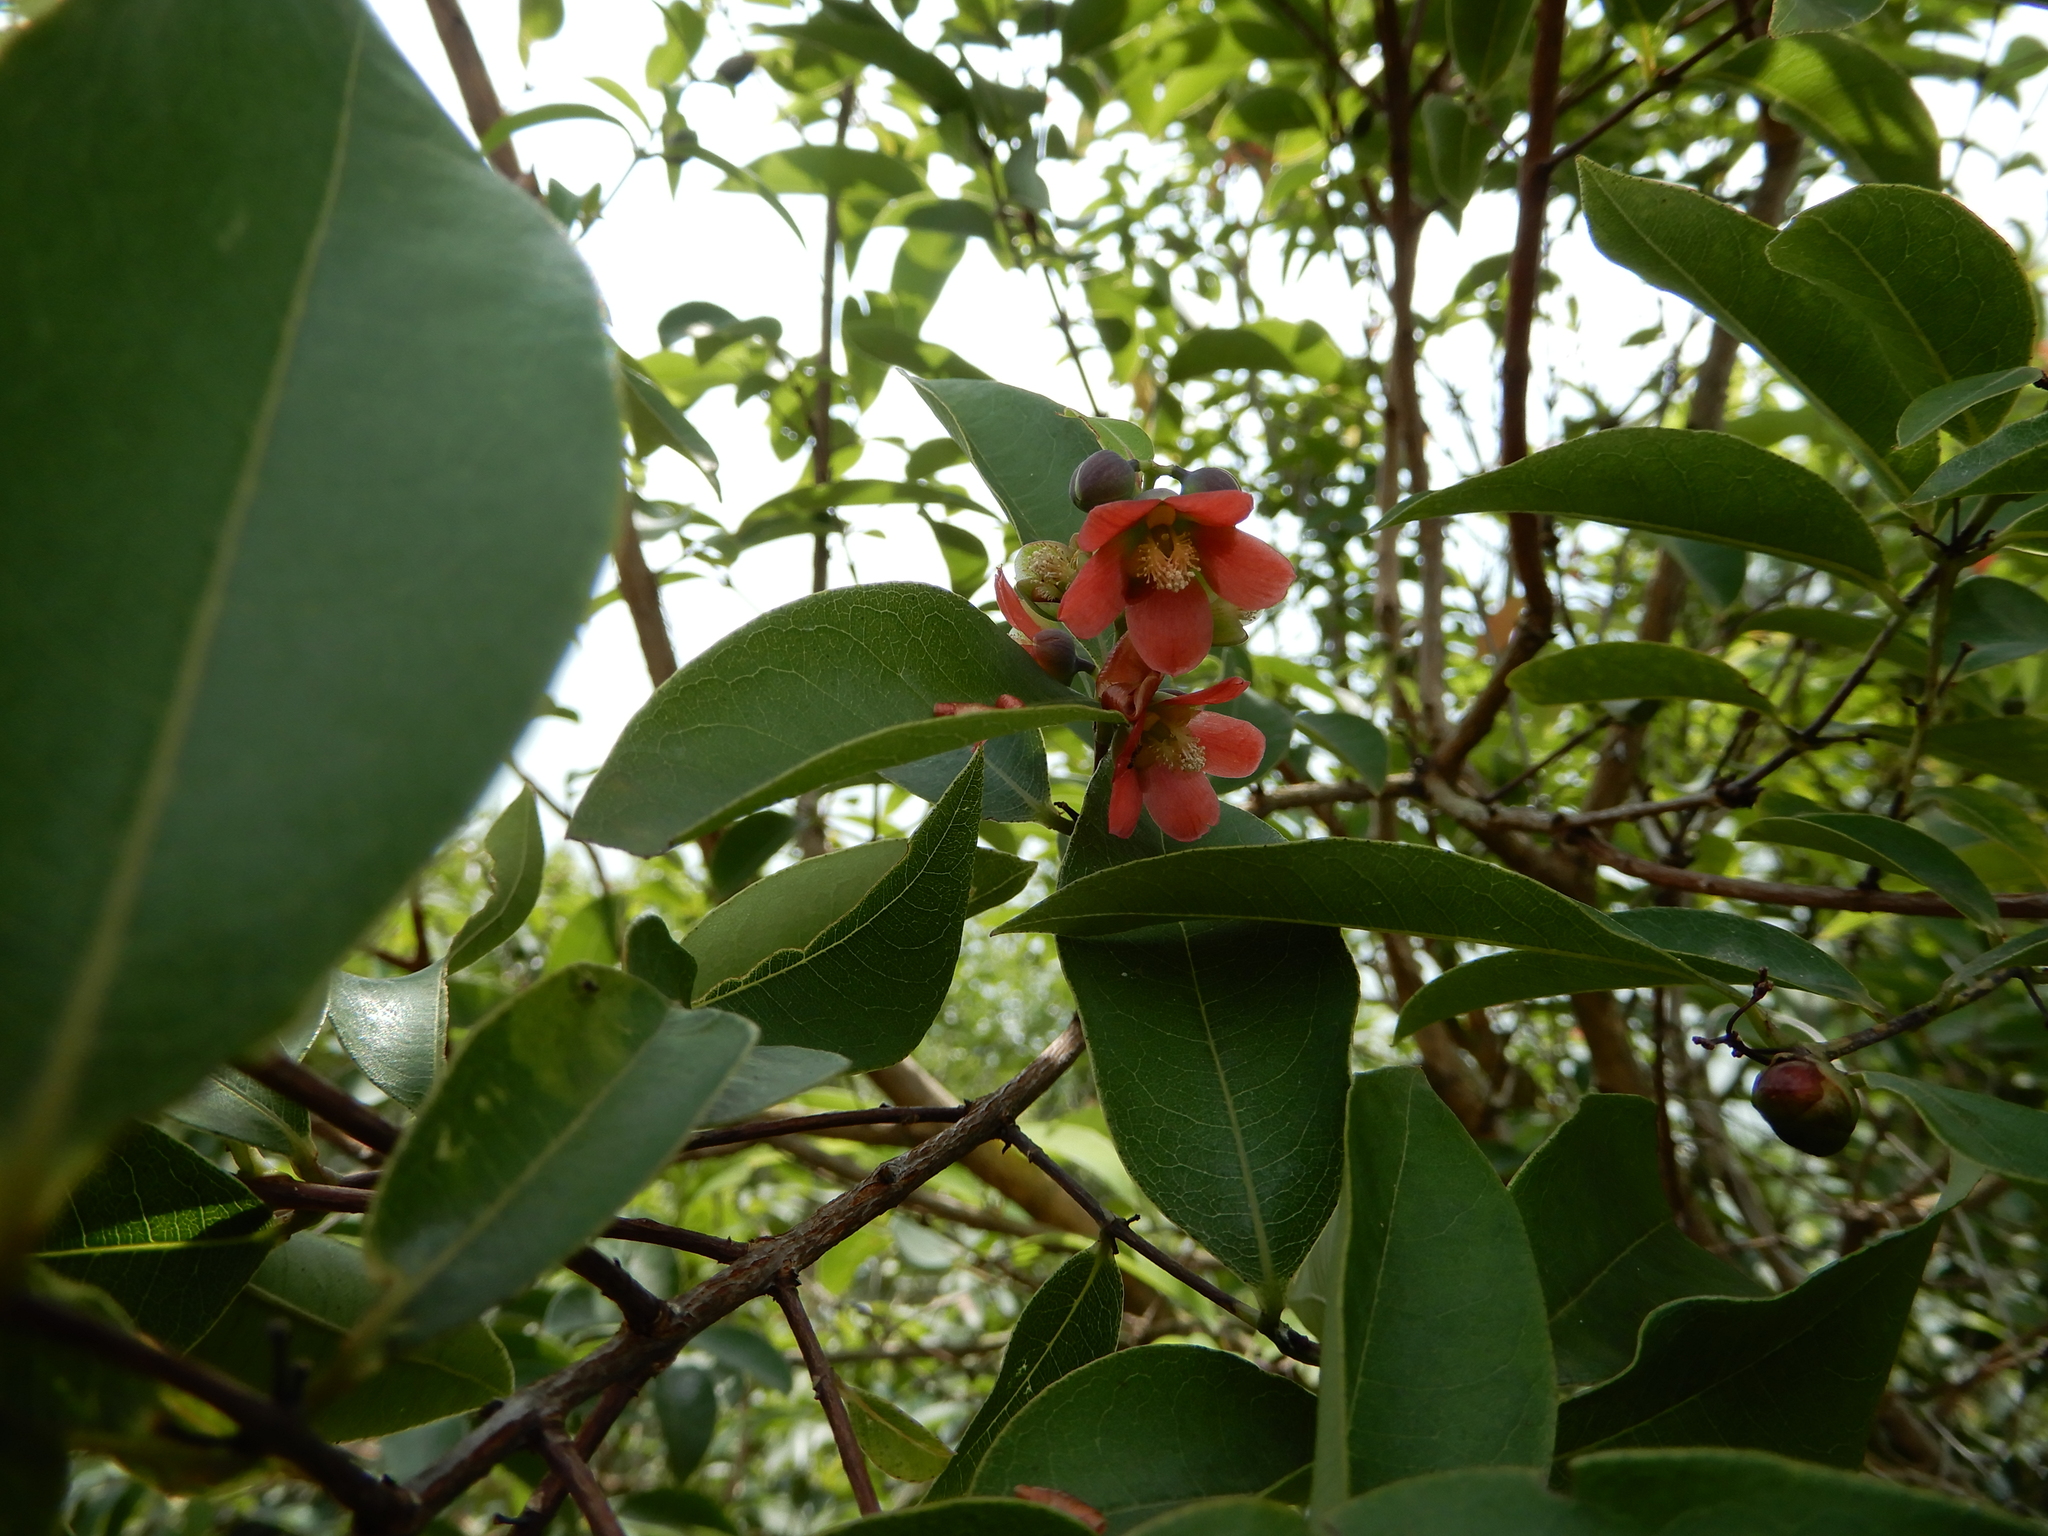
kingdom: Plantae
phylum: Tracheophyta
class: Magnoliopsida
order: Malpighiales
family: Hypericaceae
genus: Cratoxylum
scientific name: Cratoxylum cochinchinense
